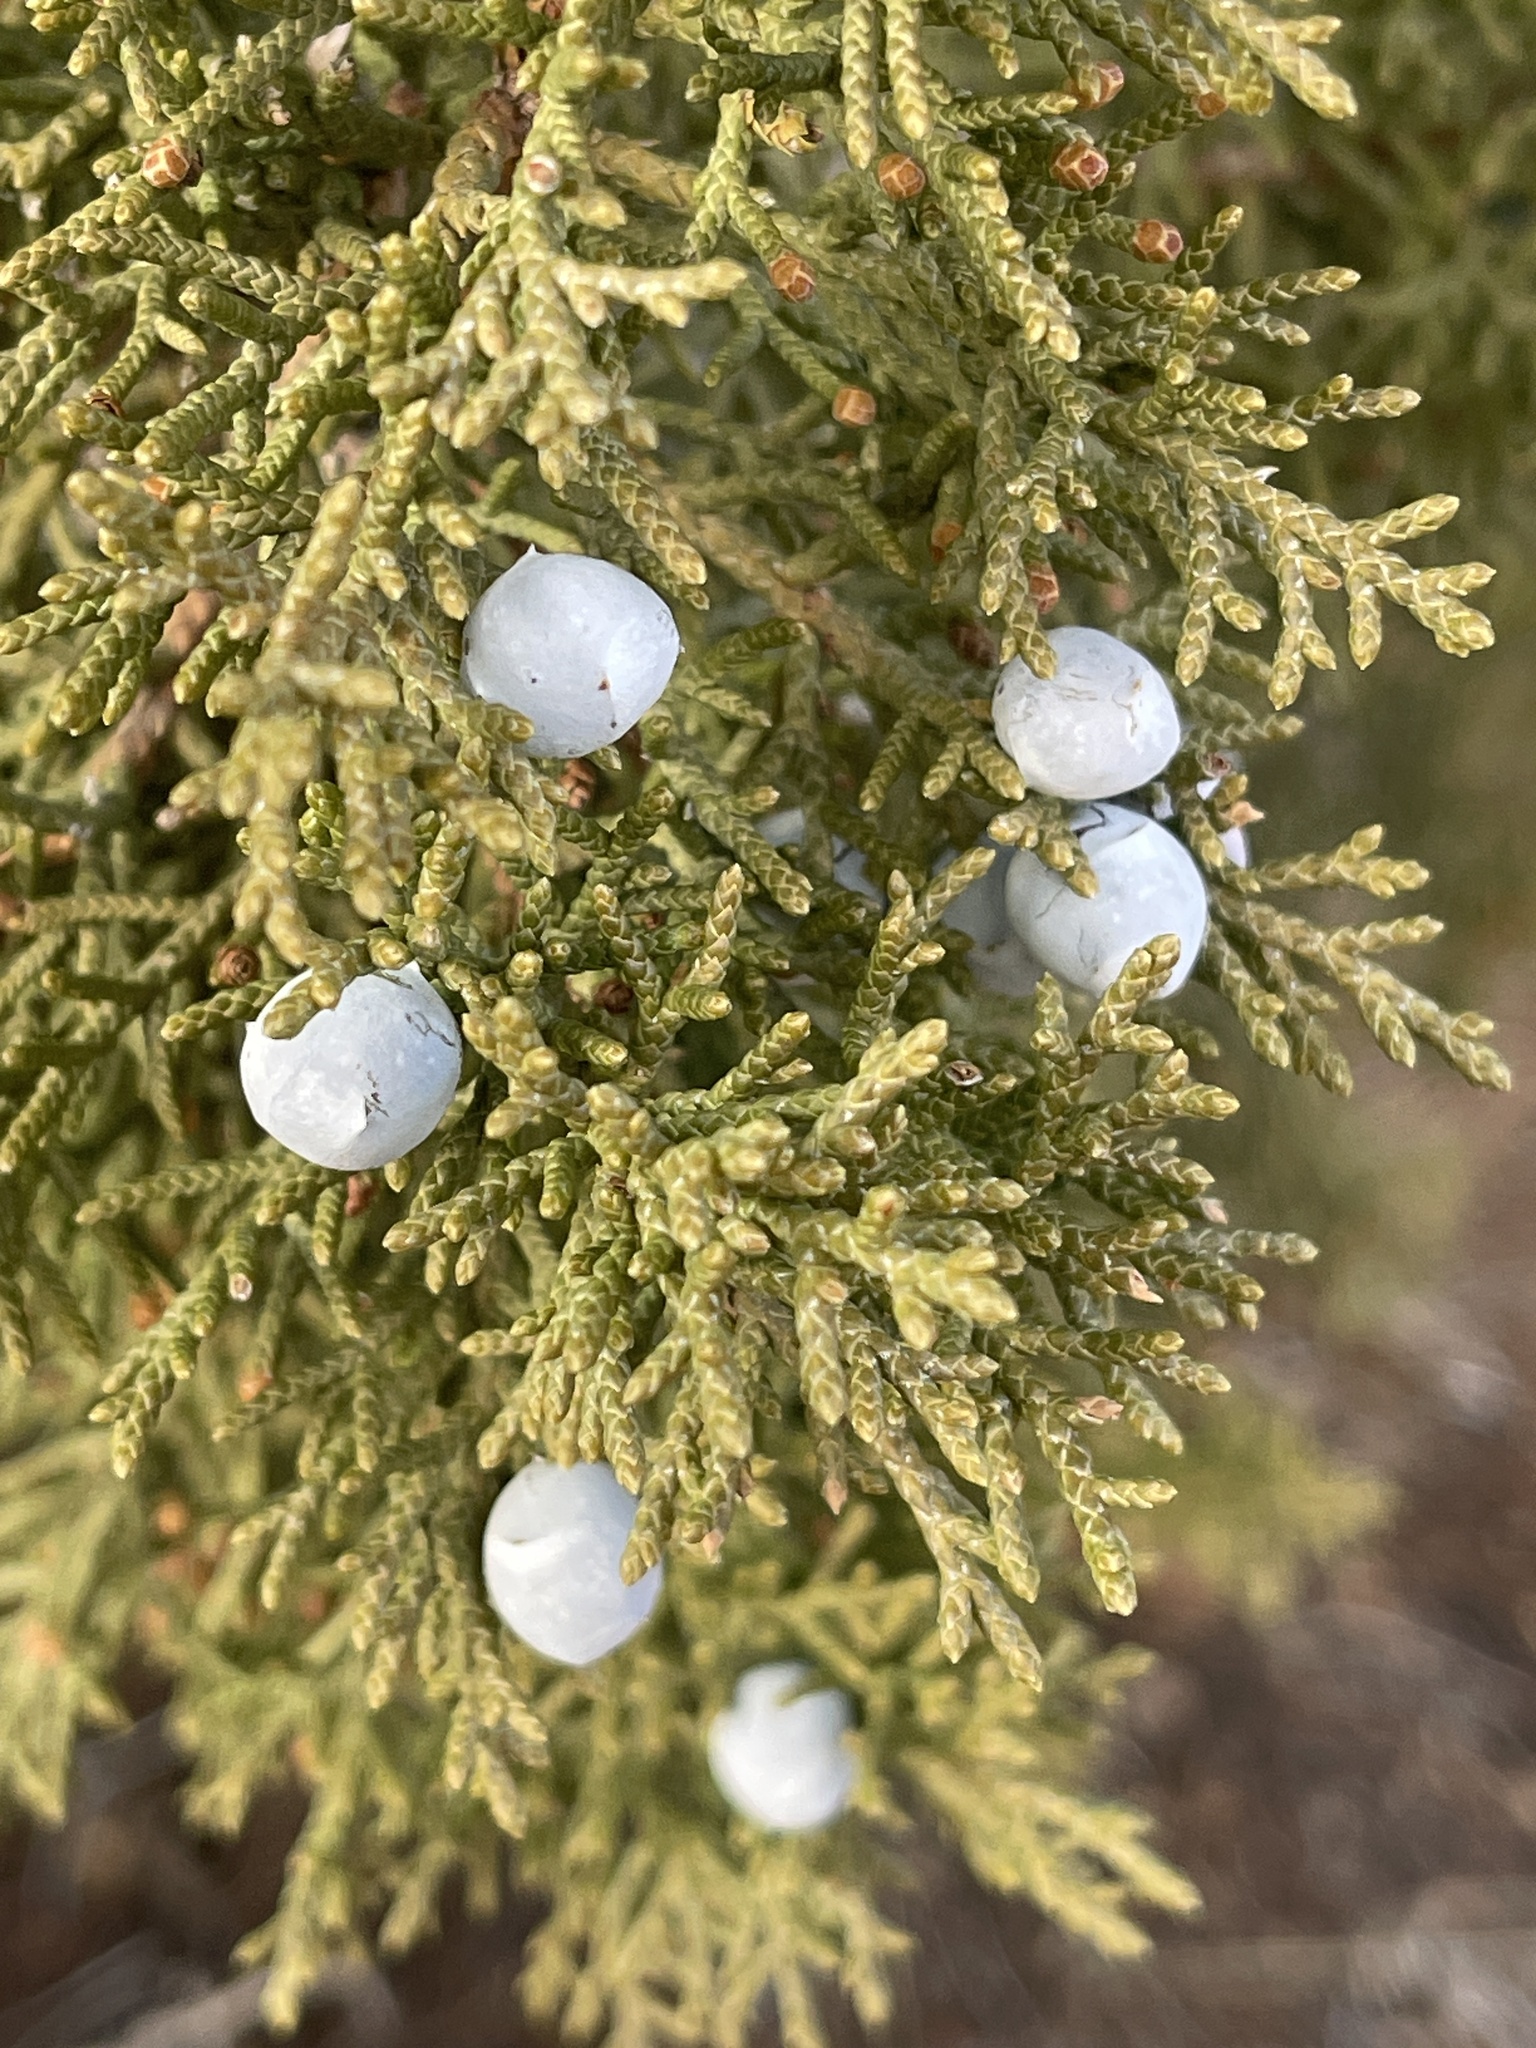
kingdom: Plantae
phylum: Tracheophyta
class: Pinopsida
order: Pinales
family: Cupressaceae
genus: Juniperus
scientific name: Juniperus osteosperma
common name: Utah juniper
